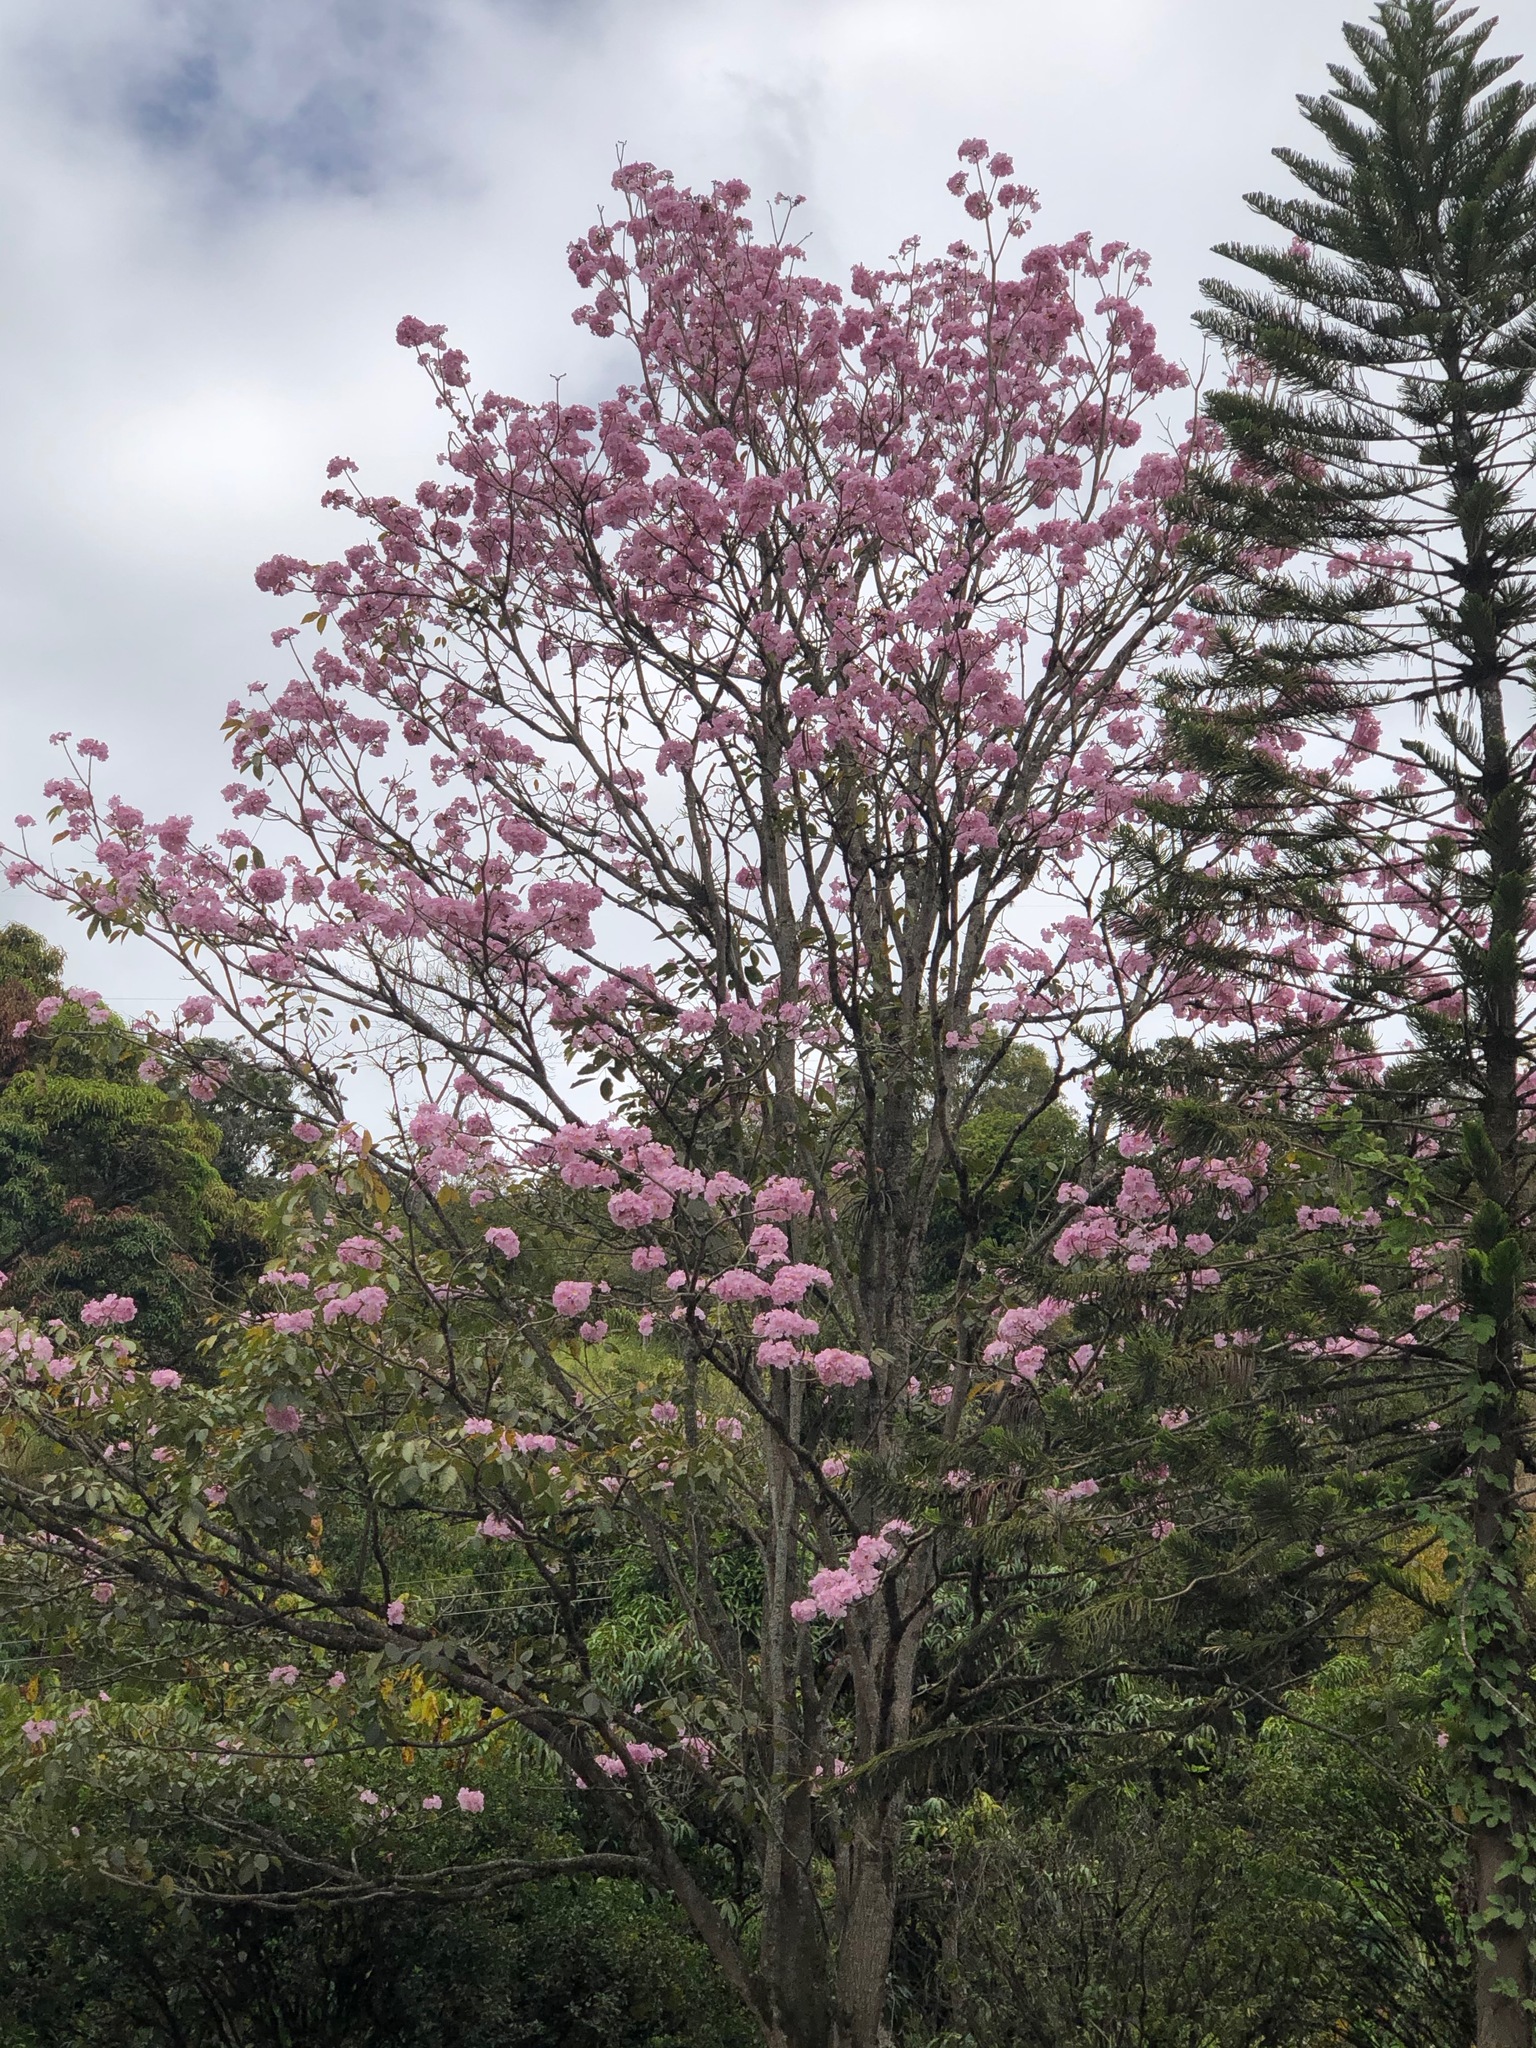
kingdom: Plantae
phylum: Tracheophyta
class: Magnoliopsida
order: Lamiales
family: Bignoniaceae
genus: Tabebuia
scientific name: Tabebuia rosea
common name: Pink poui
